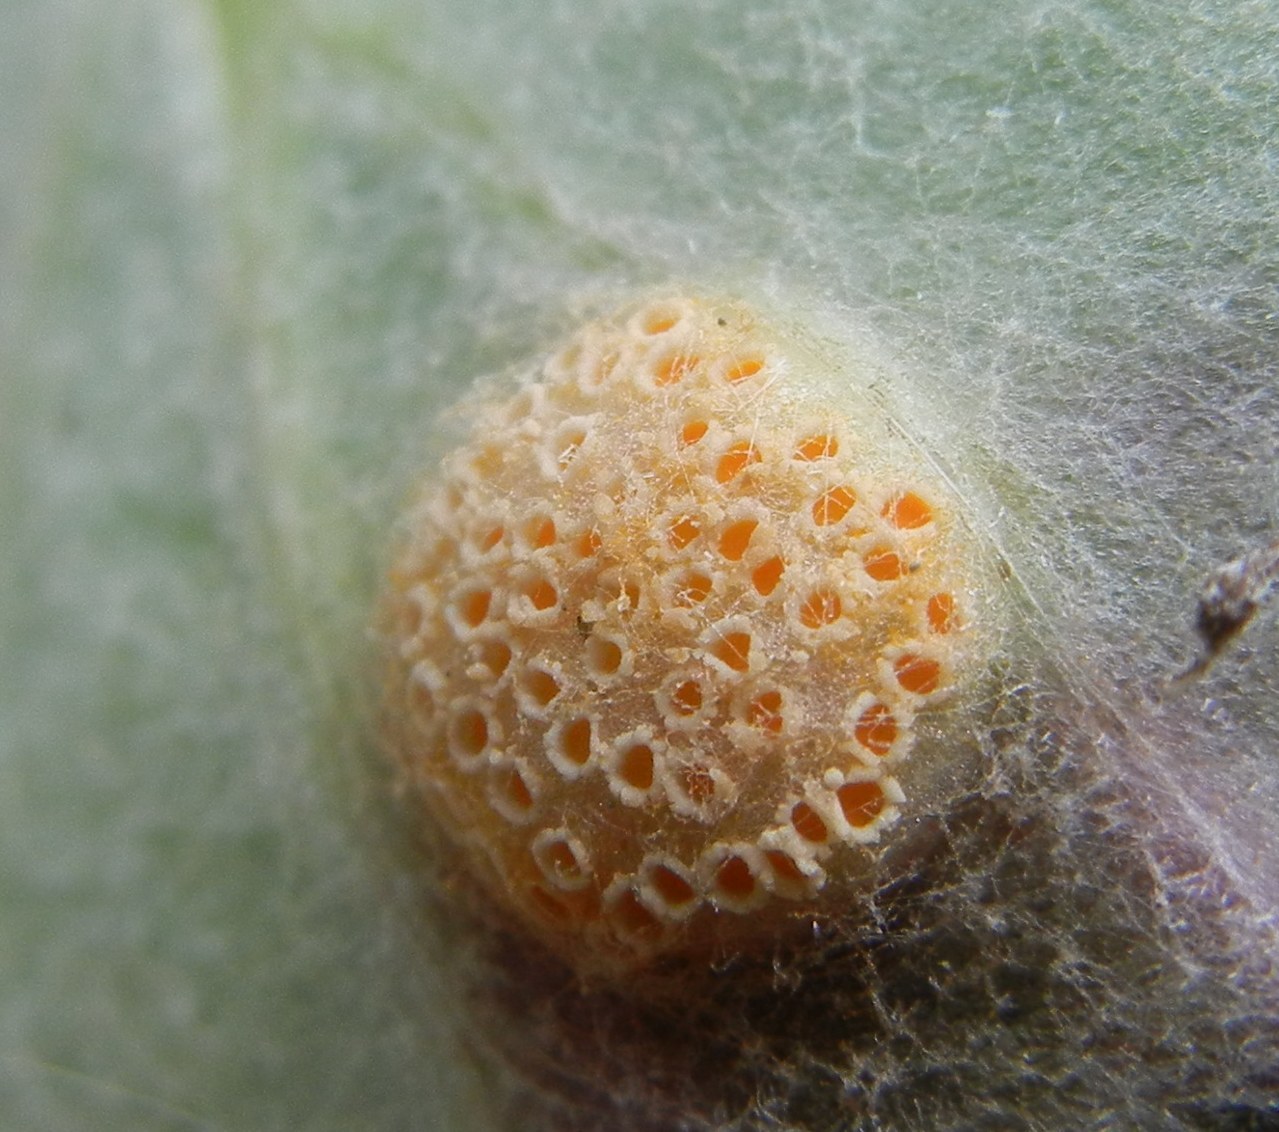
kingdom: Fungi
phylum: Basidiomycota
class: Pucciniomycetes
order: Pucciniales
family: Pucciniaceae
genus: Puccinia
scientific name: Puccinia poarum
